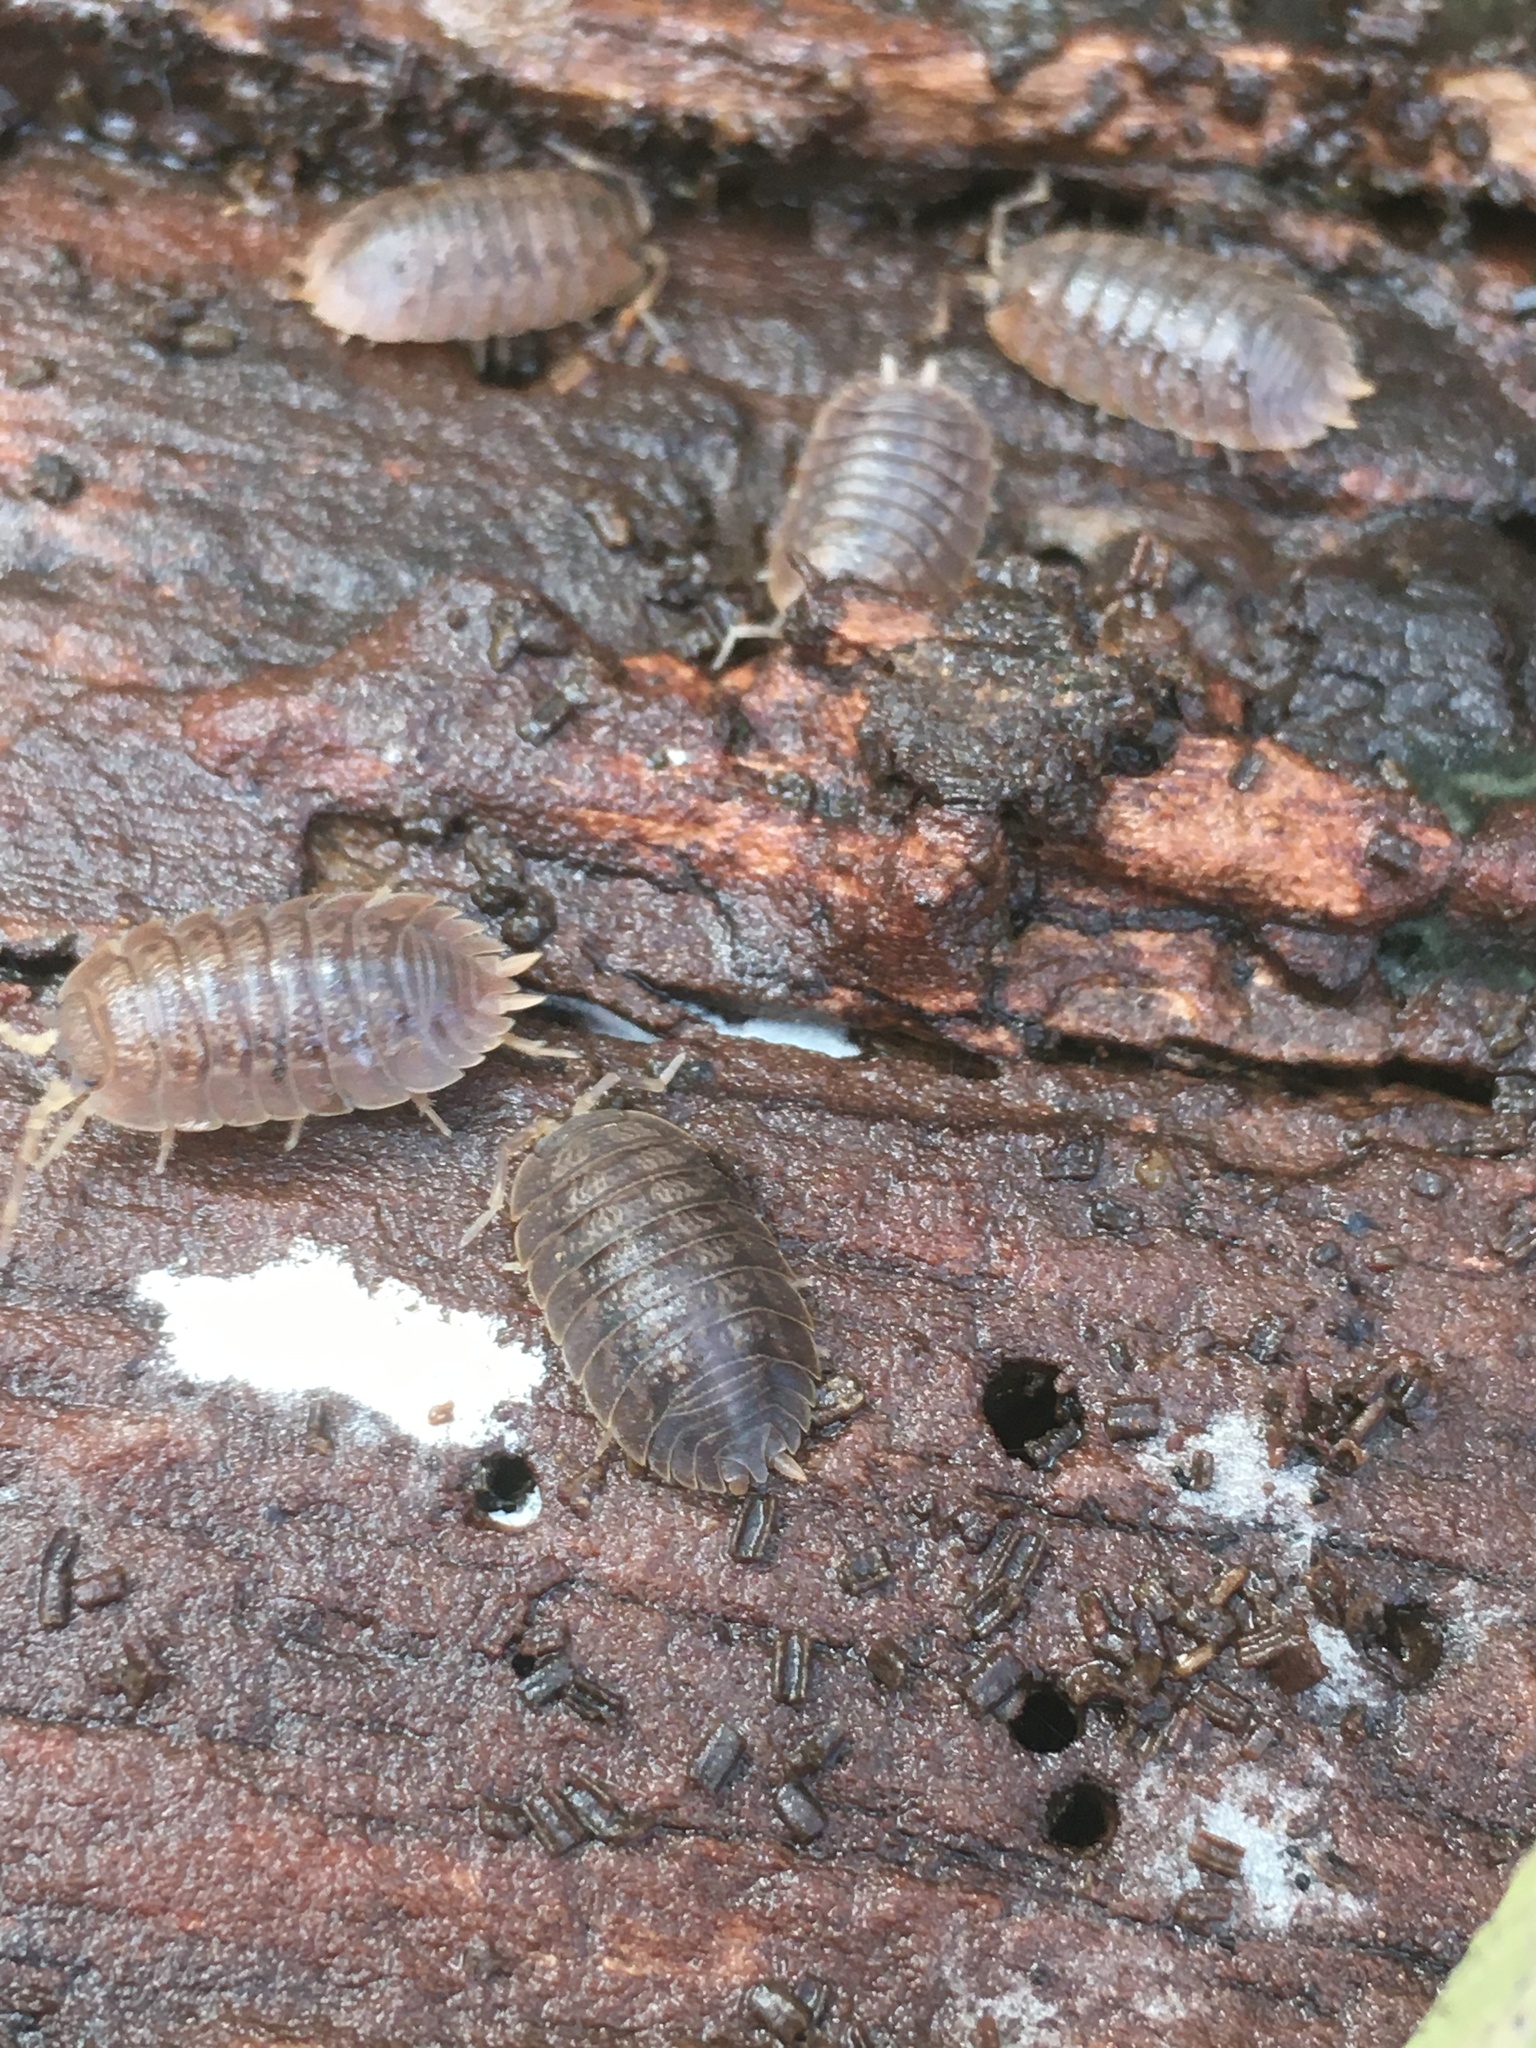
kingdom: Animalia
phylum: Arthropoda
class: Malacostraca
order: Isopoda
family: Porcellionidae
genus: Porcellio
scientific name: Porcellio dilatatus
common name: Isopod
